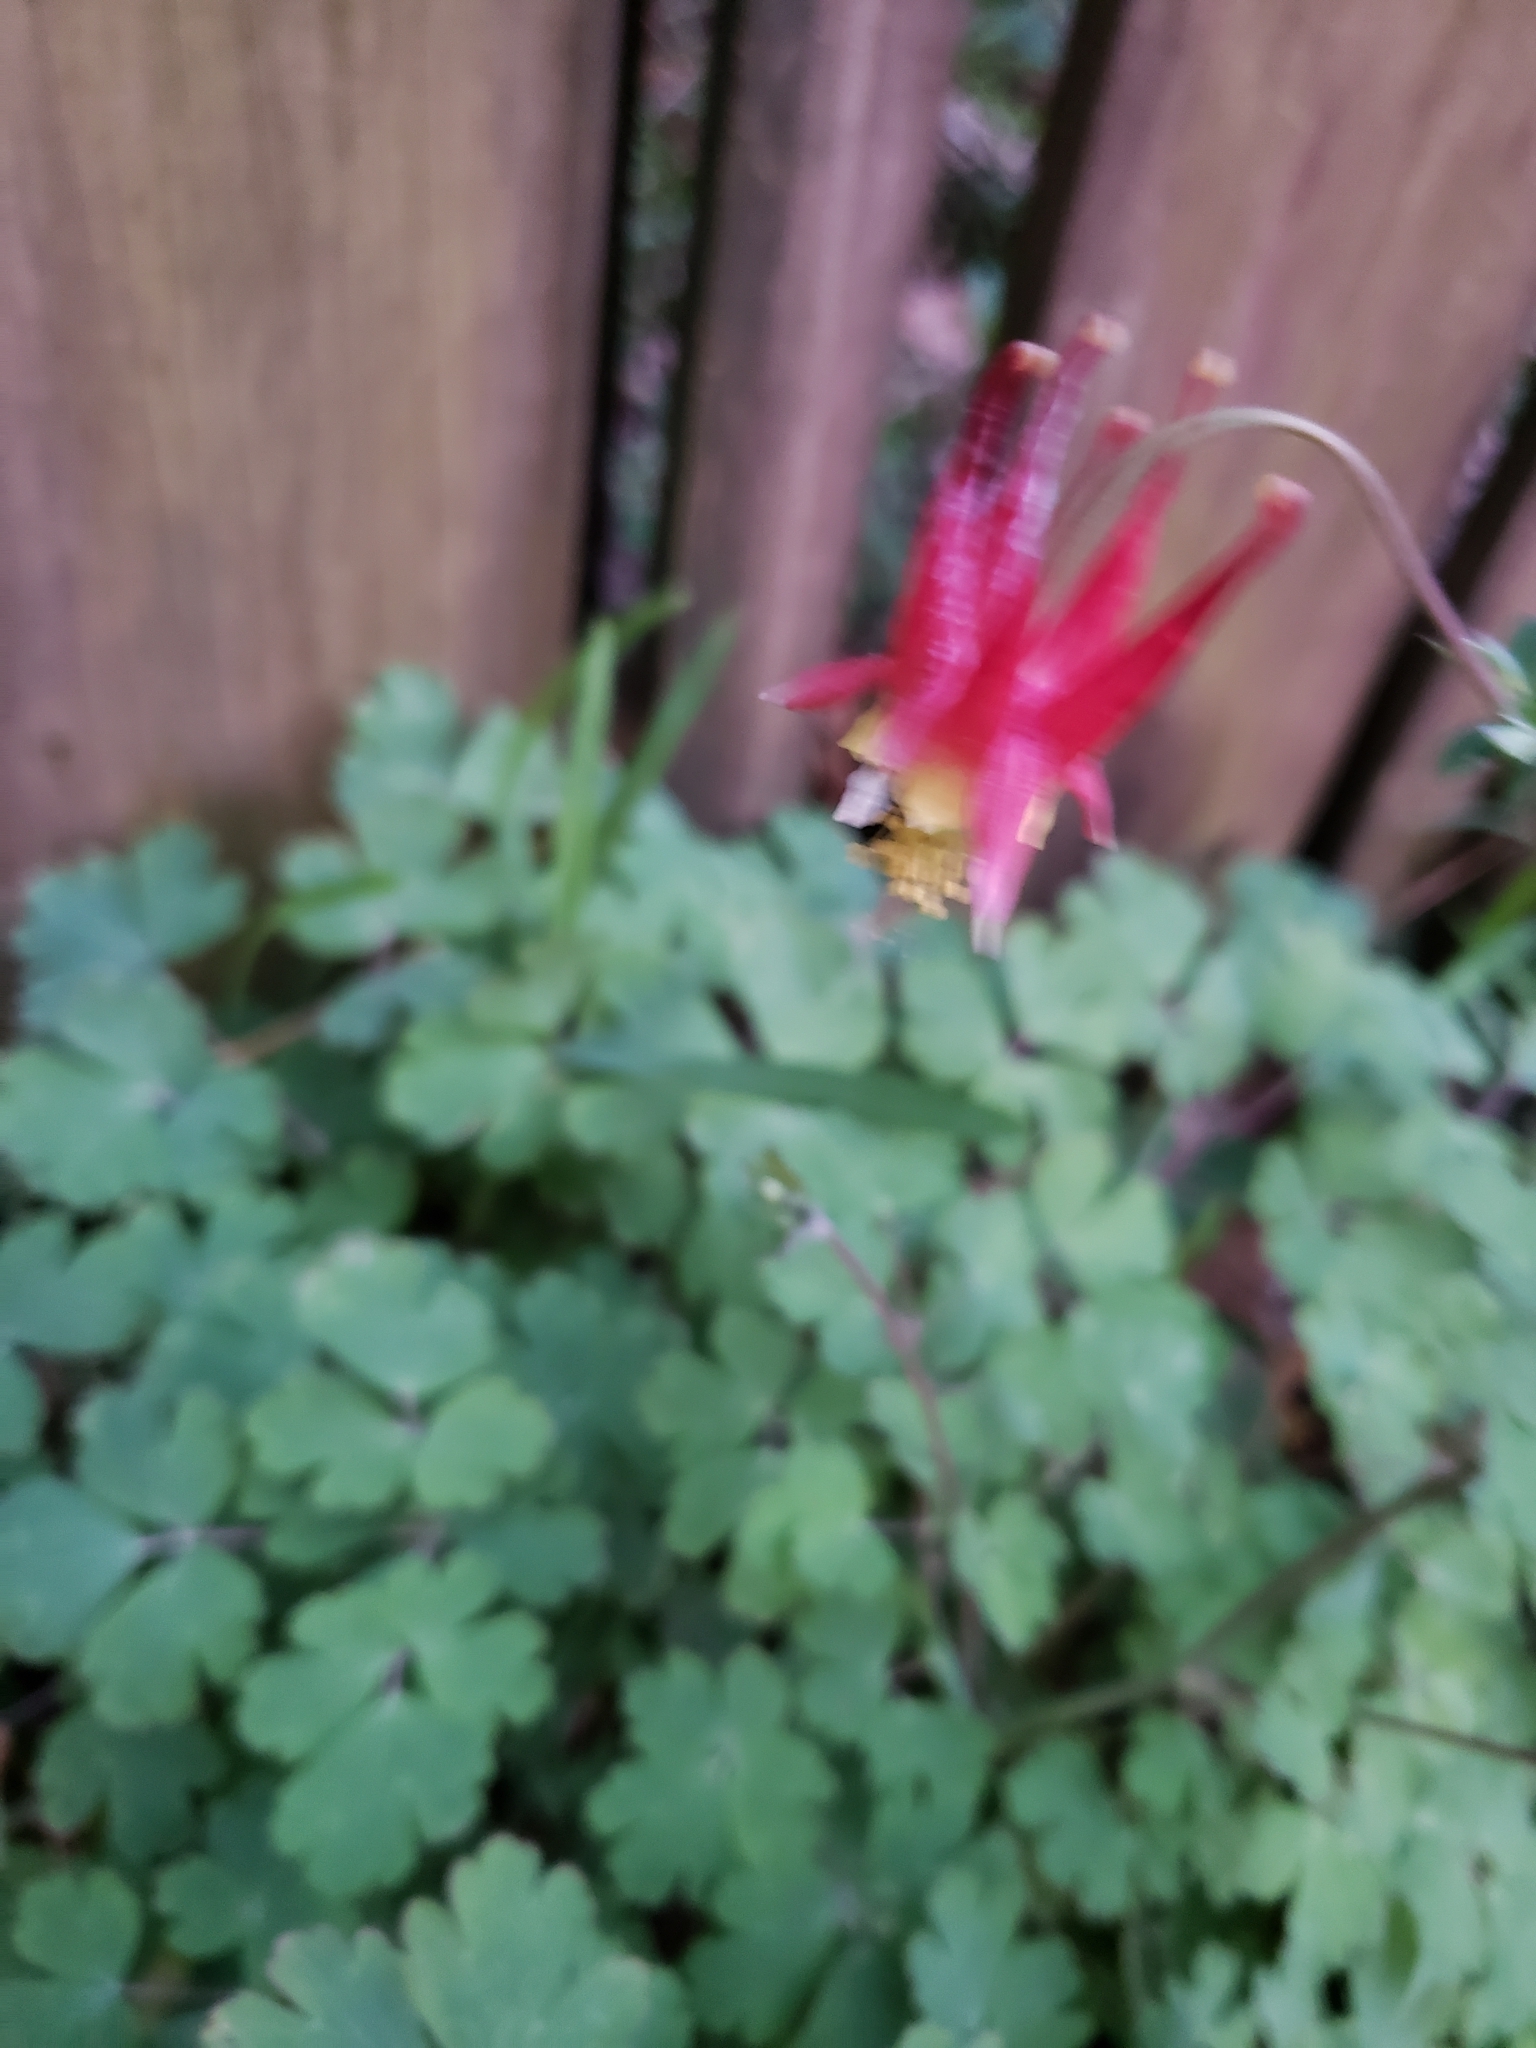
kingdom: Plantae
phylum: Tracheophyta
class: Magnoliopsida
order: Ranunculales
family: Ranunculaceae
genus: Aquilegia
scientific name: Aquilegia canadensis
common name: American columbine
